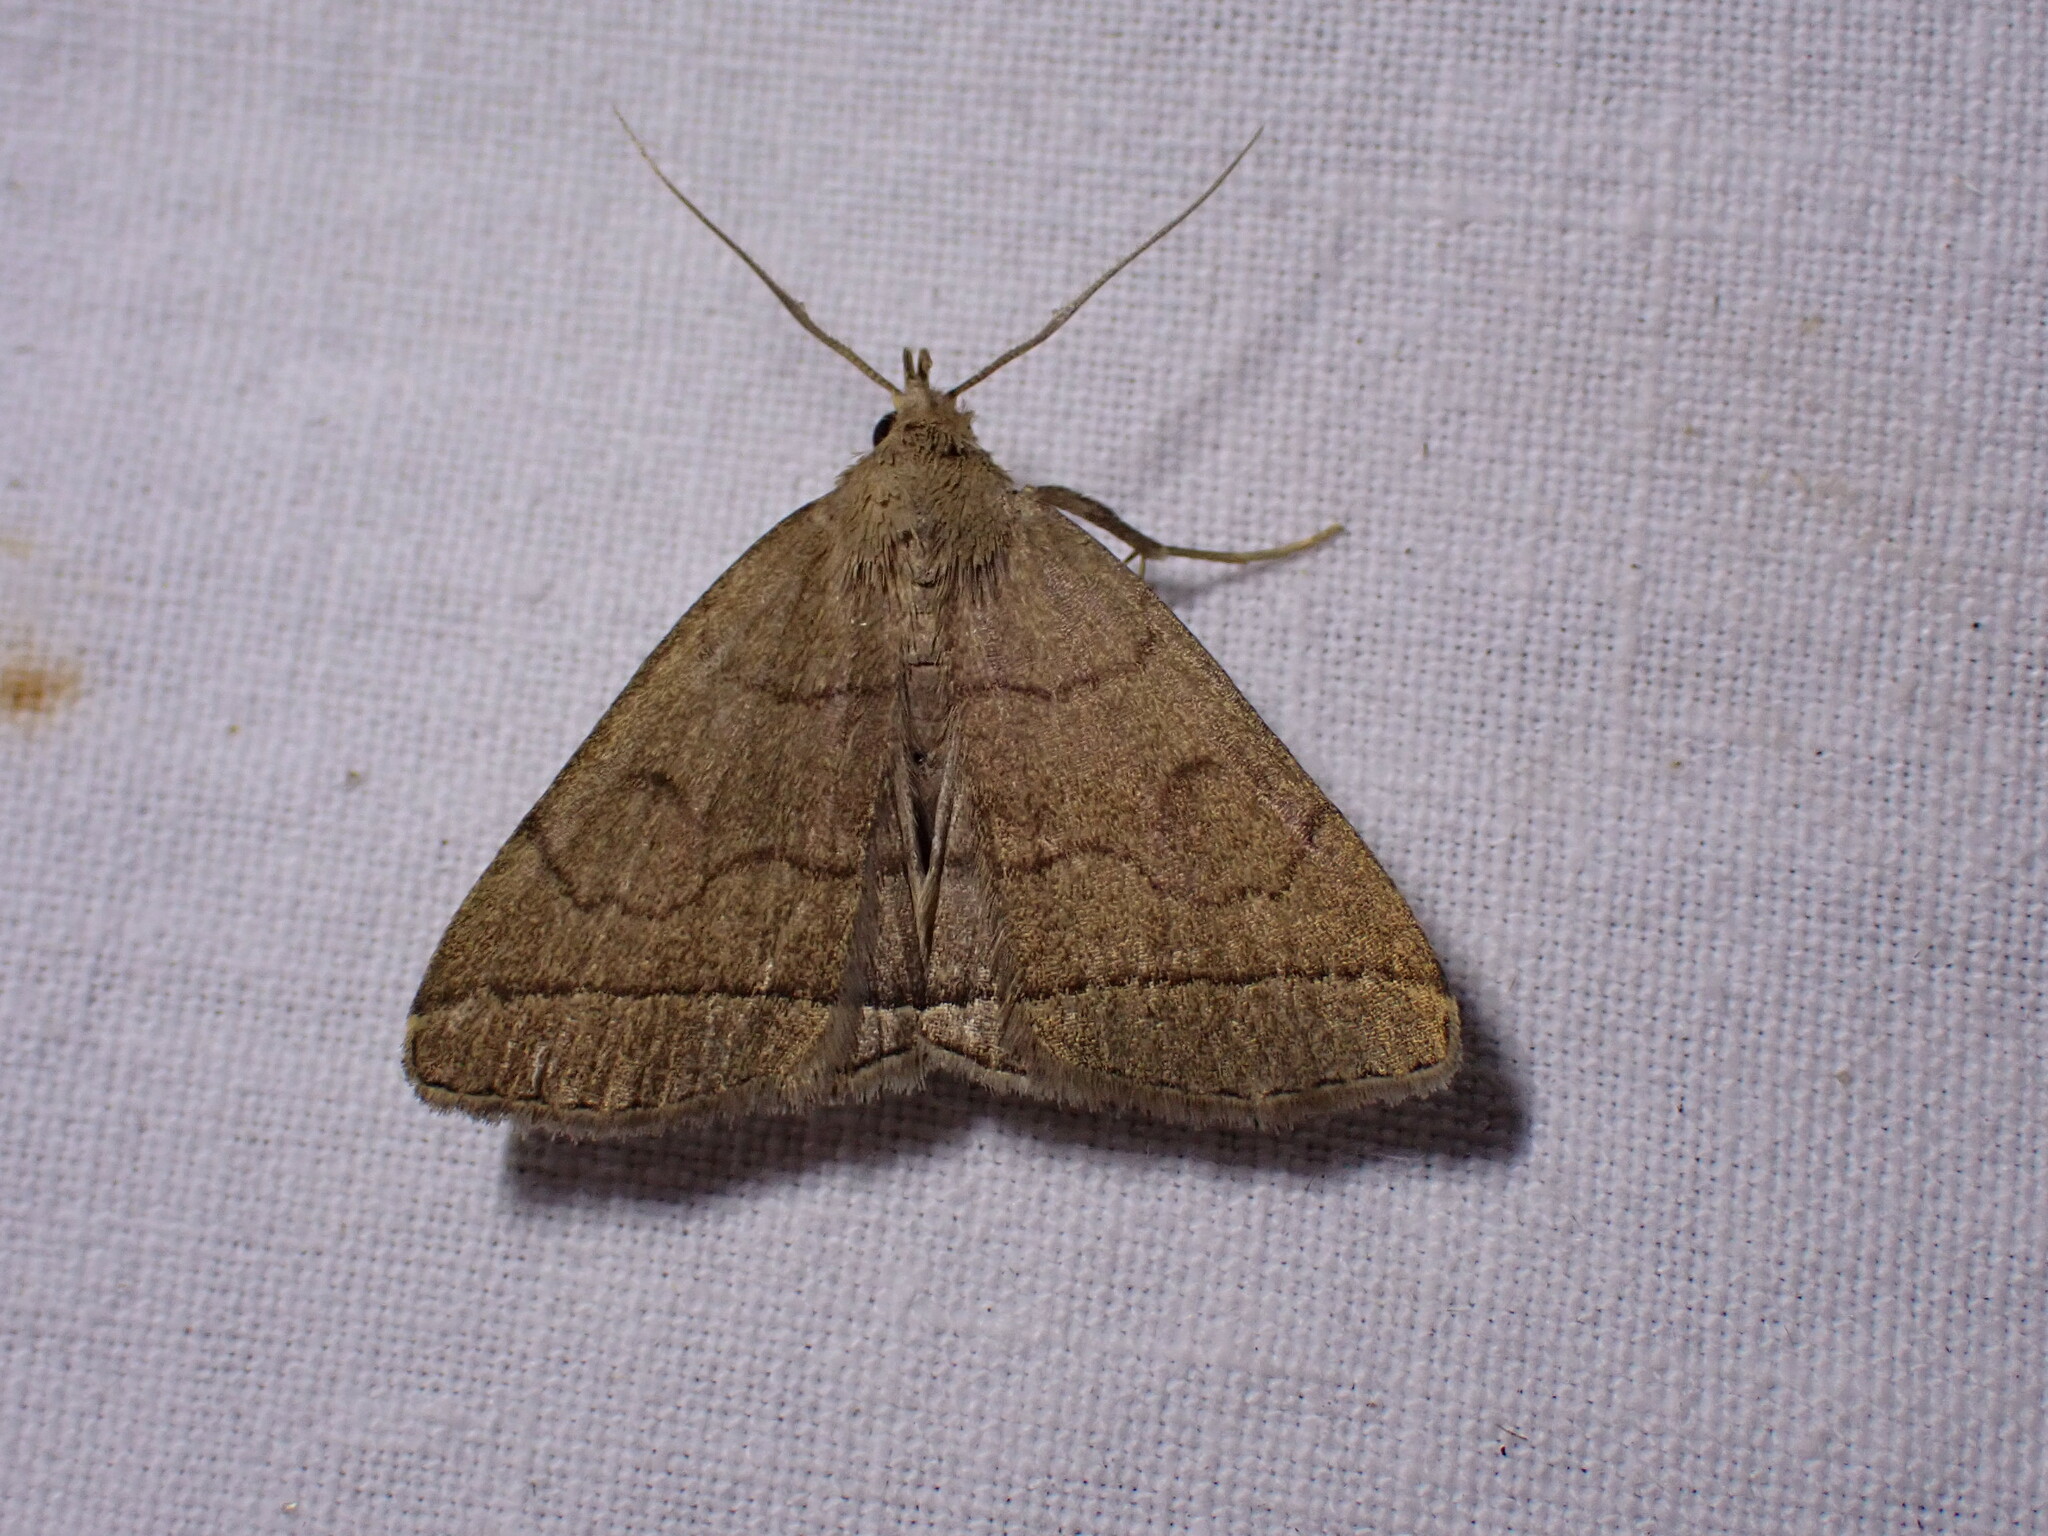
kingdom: Animalia
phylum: Arthropoda
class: Insecta
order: Lepidoptera
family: Erebidae
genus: Herminia
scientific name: Herminia tarsipennalis
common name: Fan-foot
